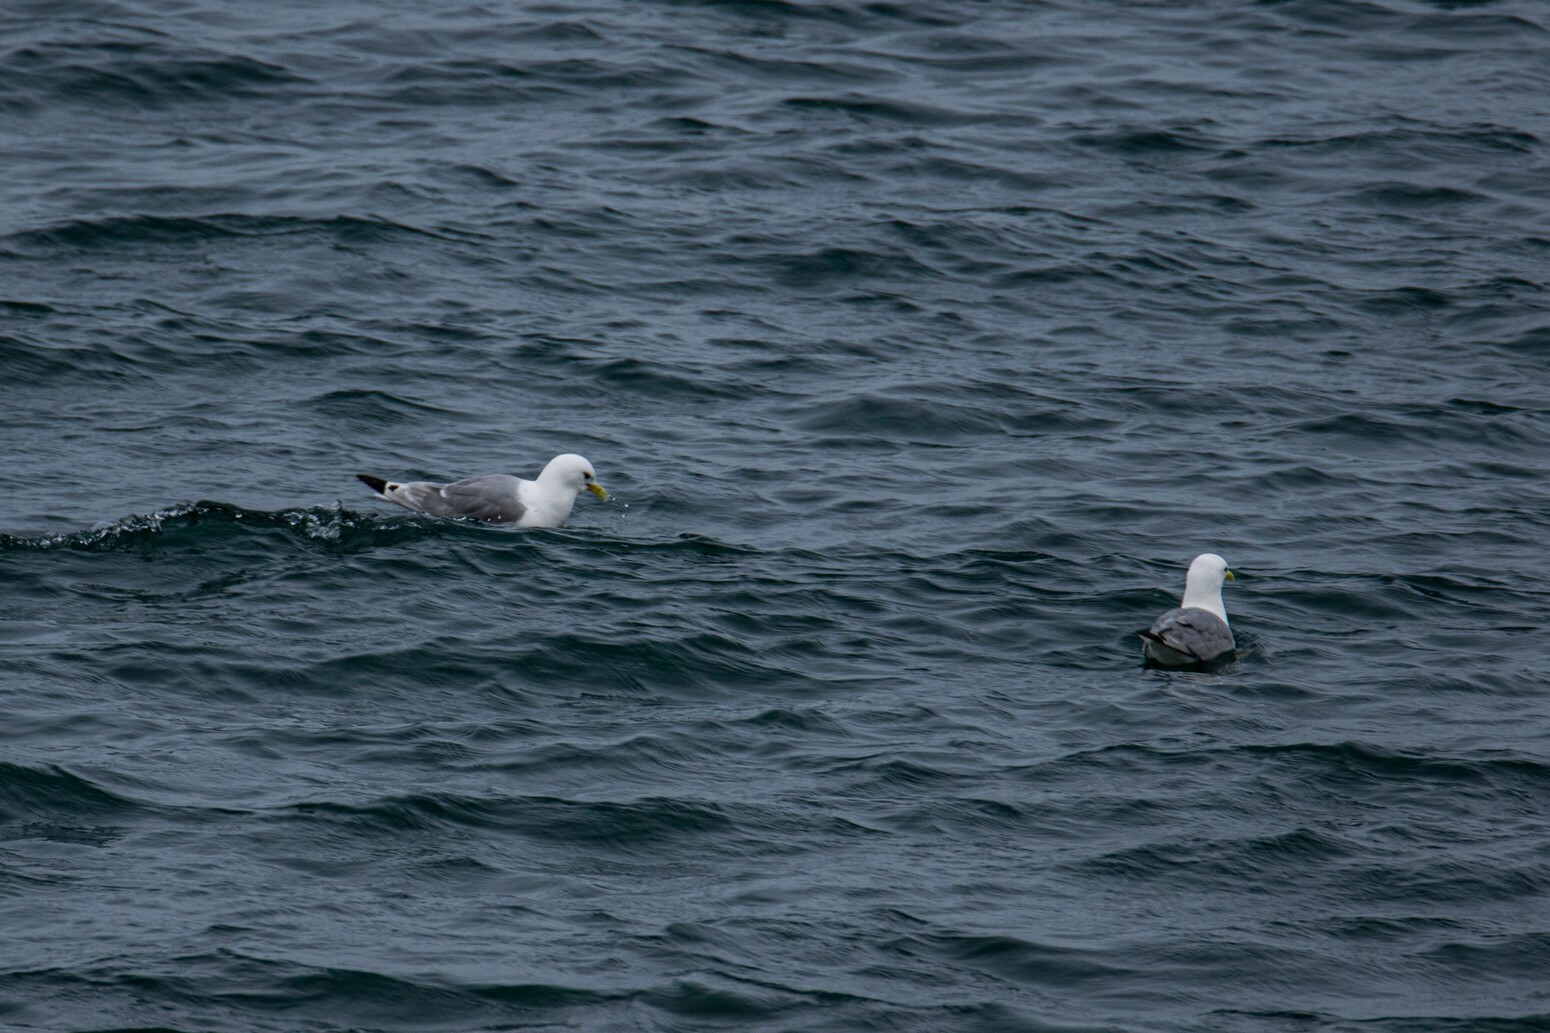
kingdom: Animalia
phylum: Chordata
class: Aves
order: Charadriiformes
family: Laridae
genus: Rissa
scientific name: Rissa tridactyla
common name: Black-legged kittiwake
